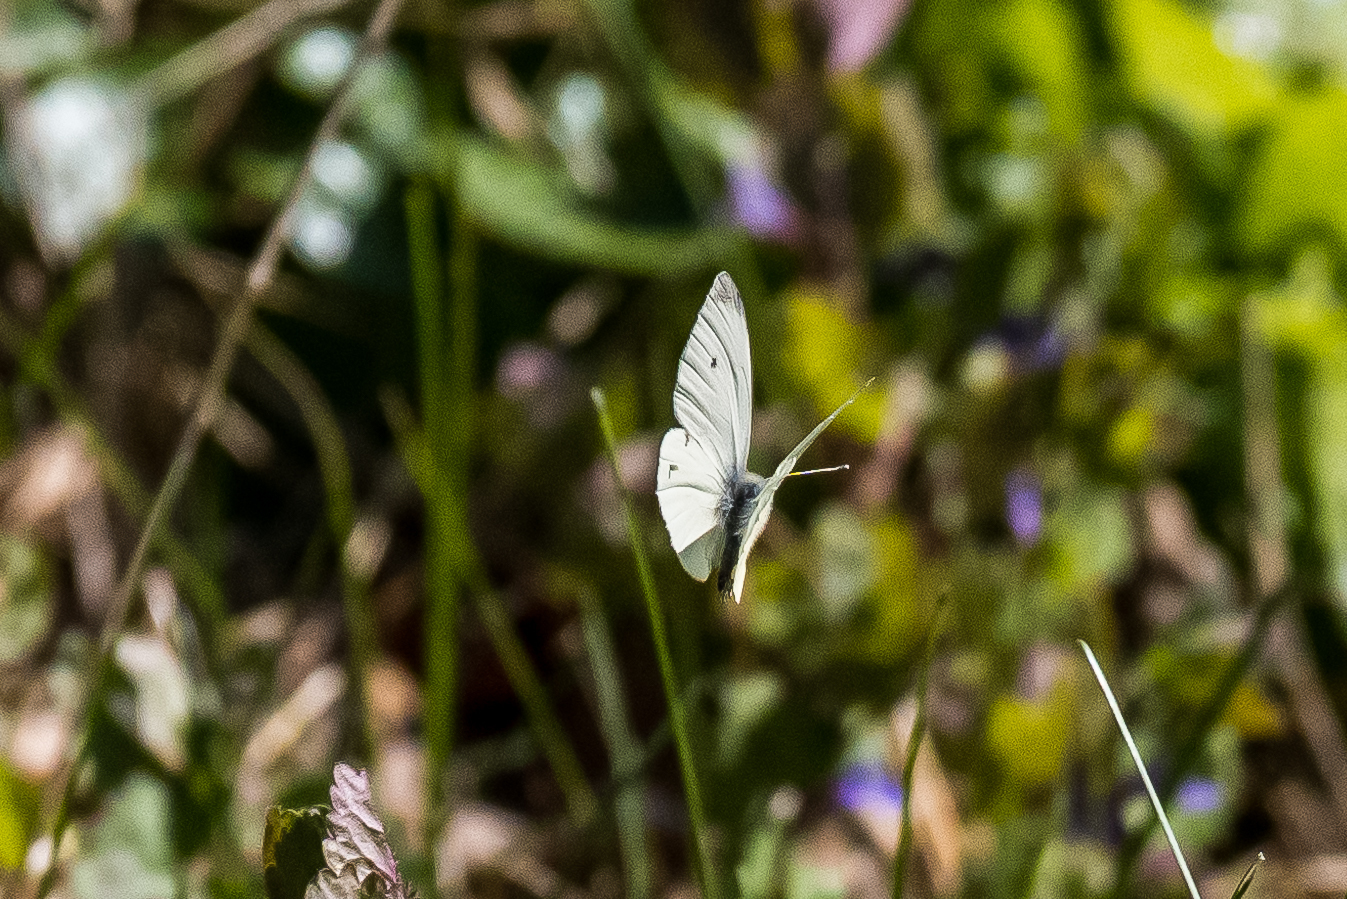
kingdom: Animalia
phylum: Arthropoda
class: Insecta
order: Lepidoptera
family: Pieridae
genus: Pieris
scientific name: Pieris rapae
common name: Small white
